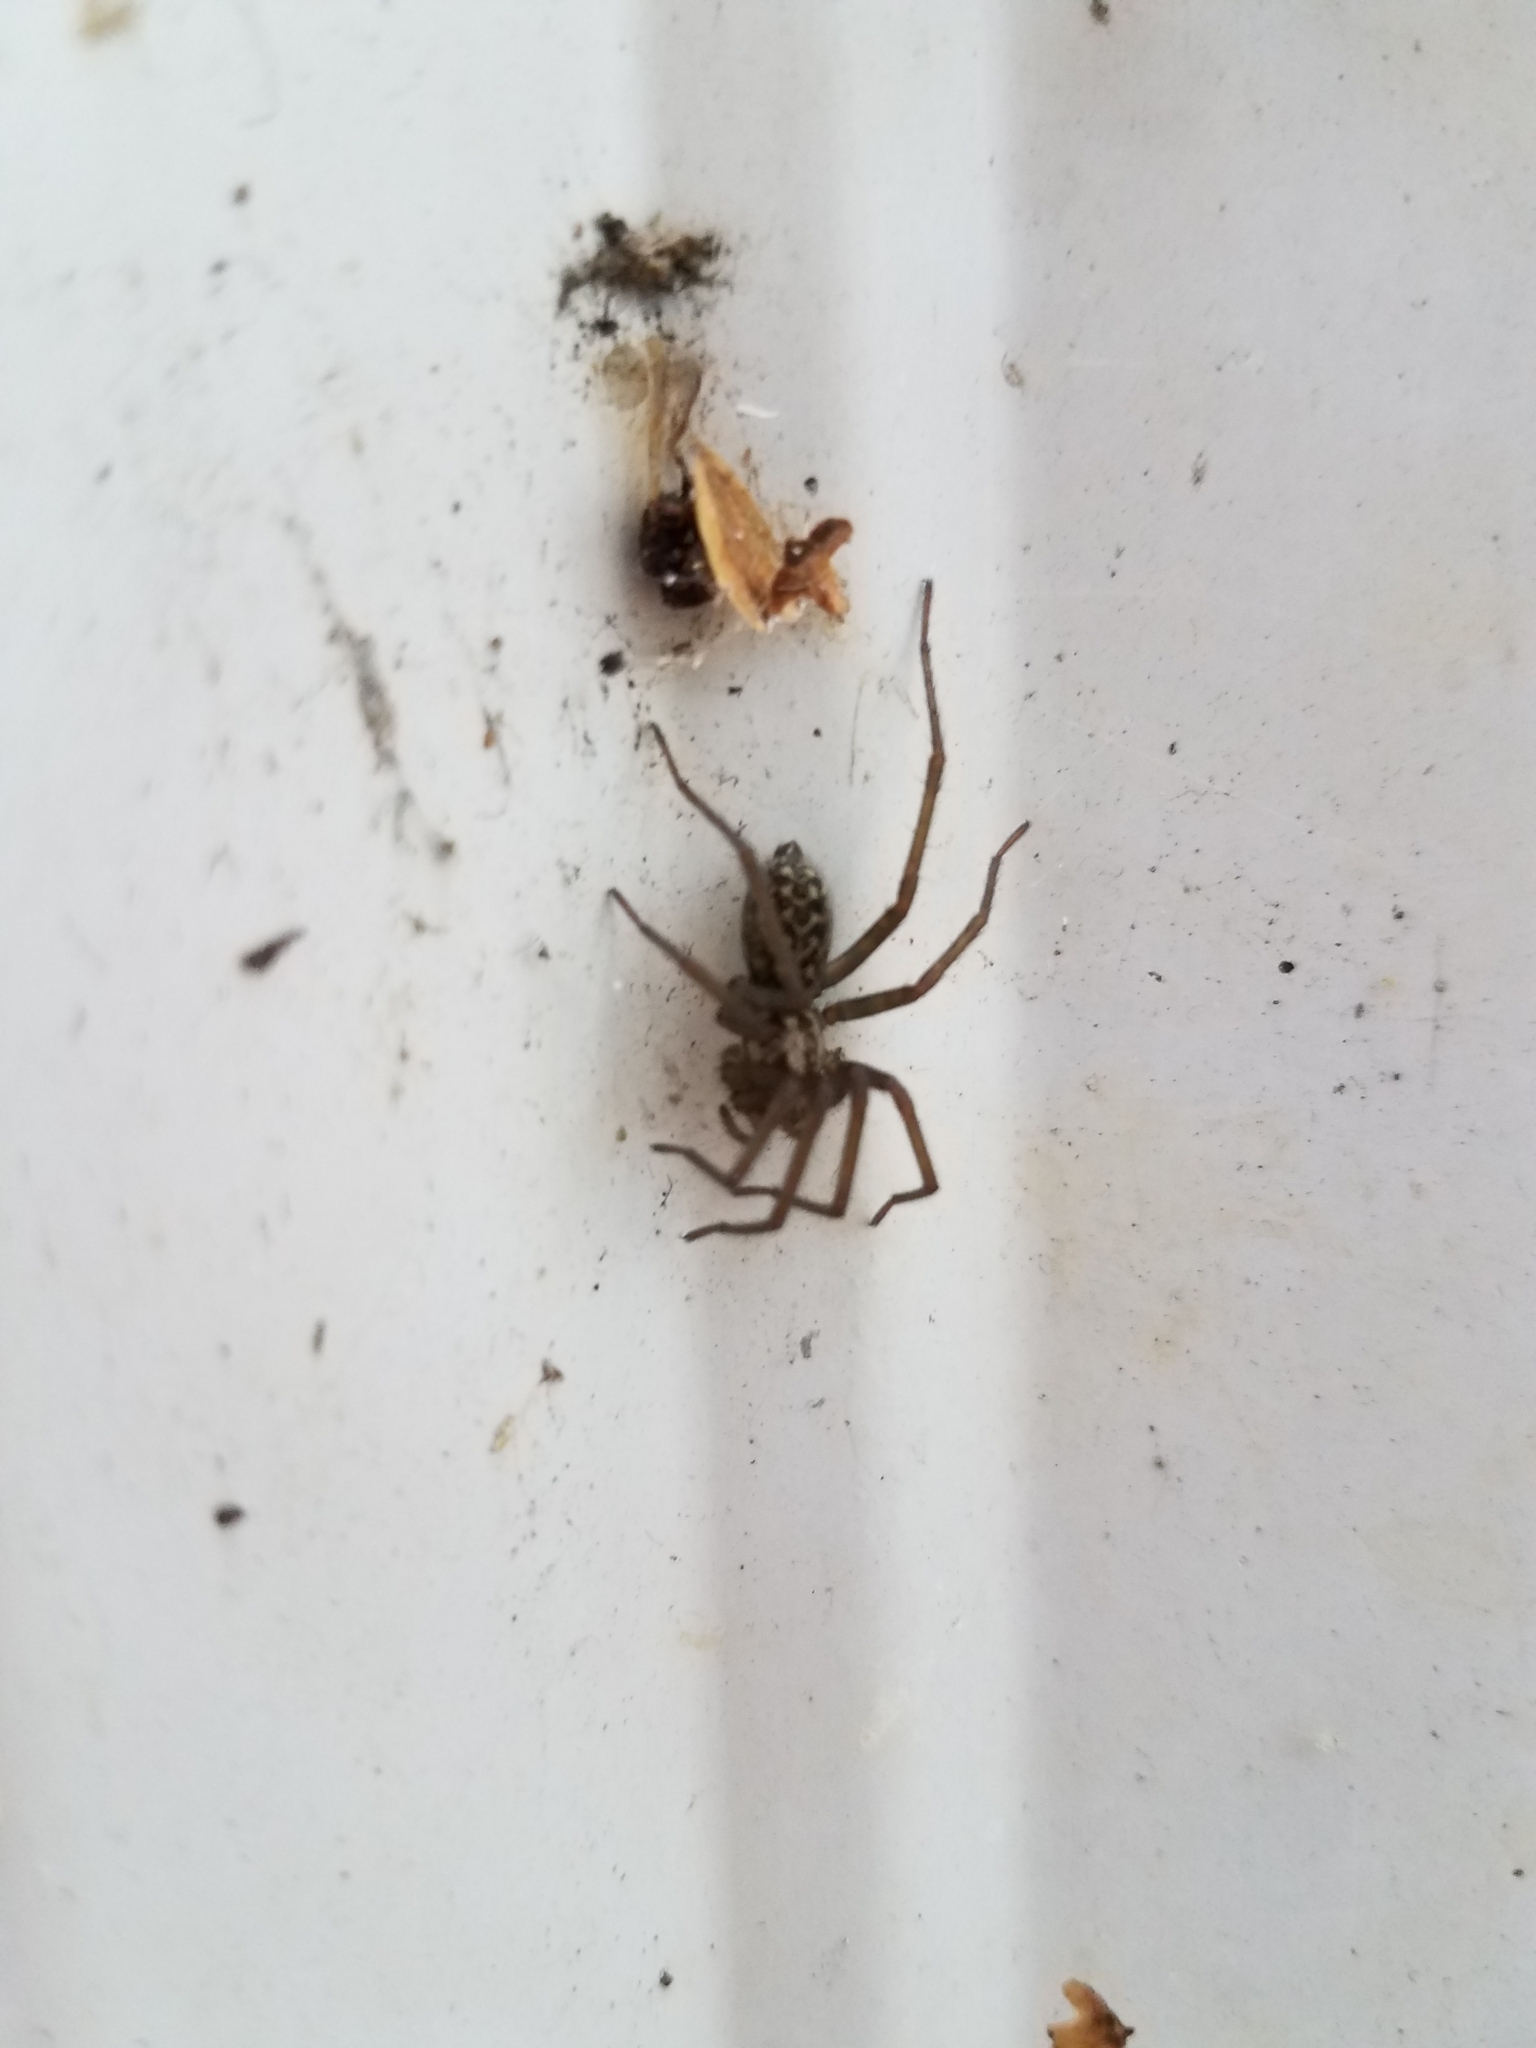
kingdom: Animalia
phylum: Arthropoda
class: Arachnida
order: Araneae
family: Agelenidae
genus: Eratigena
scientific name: Eratigena duellica
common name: Giant house spider
